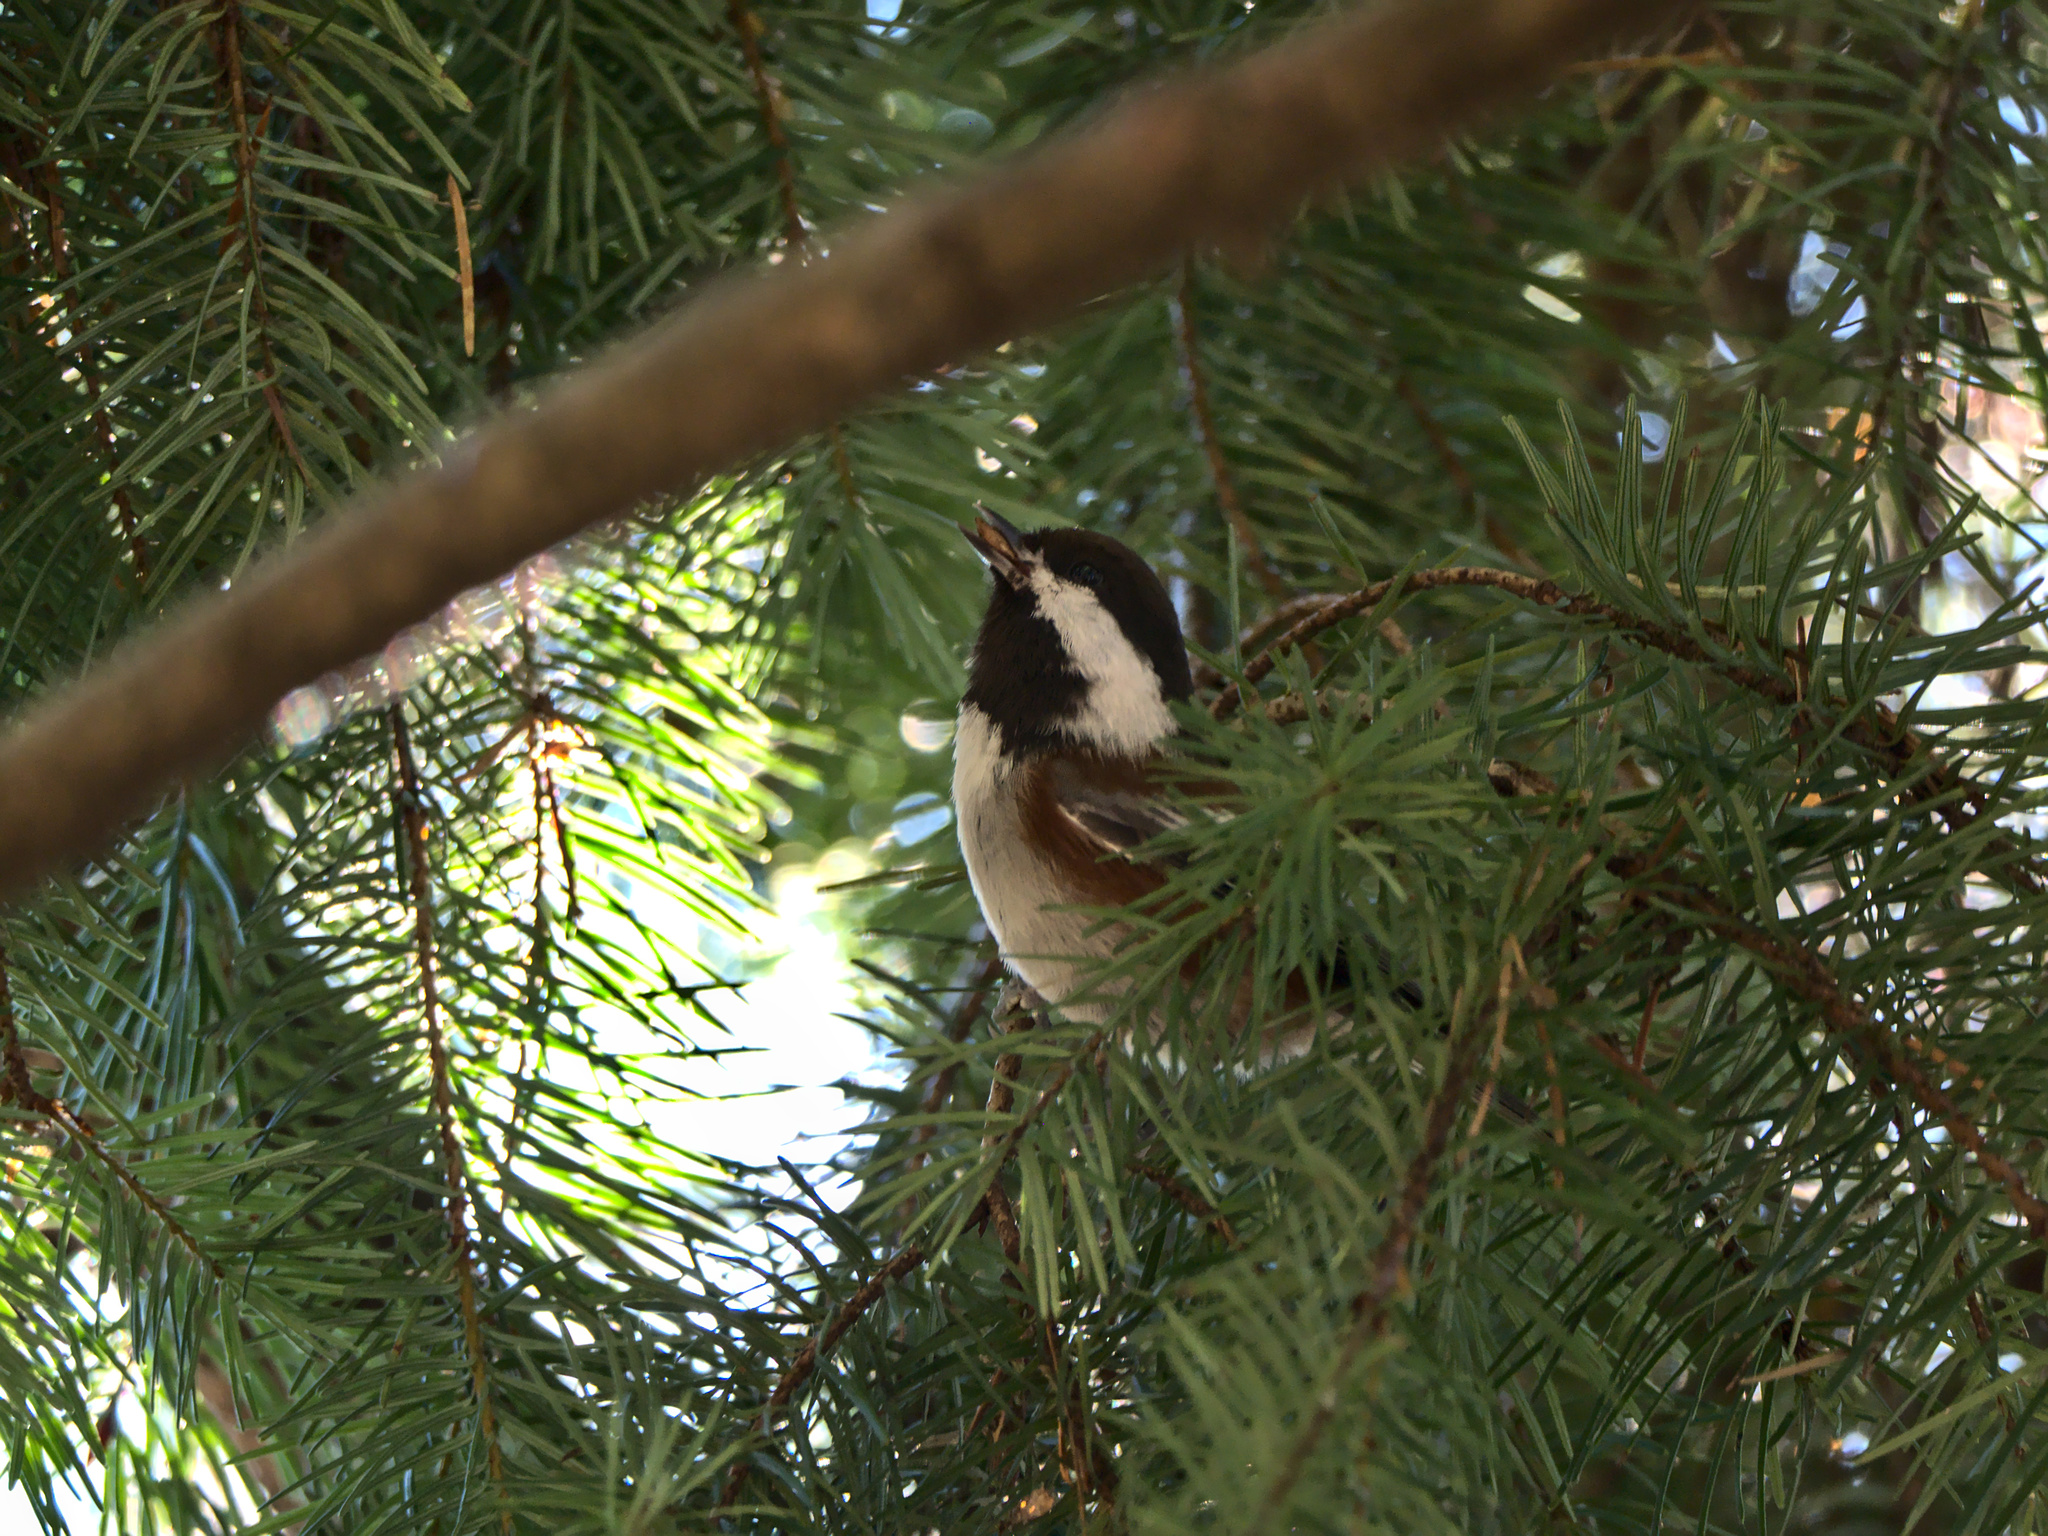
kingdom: Animalia
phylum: Chordata
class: Aves
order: Passeriformes
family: Paridae
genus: Poecile
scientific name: Poecile rufescens
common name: Chestnut-backed chickadee
